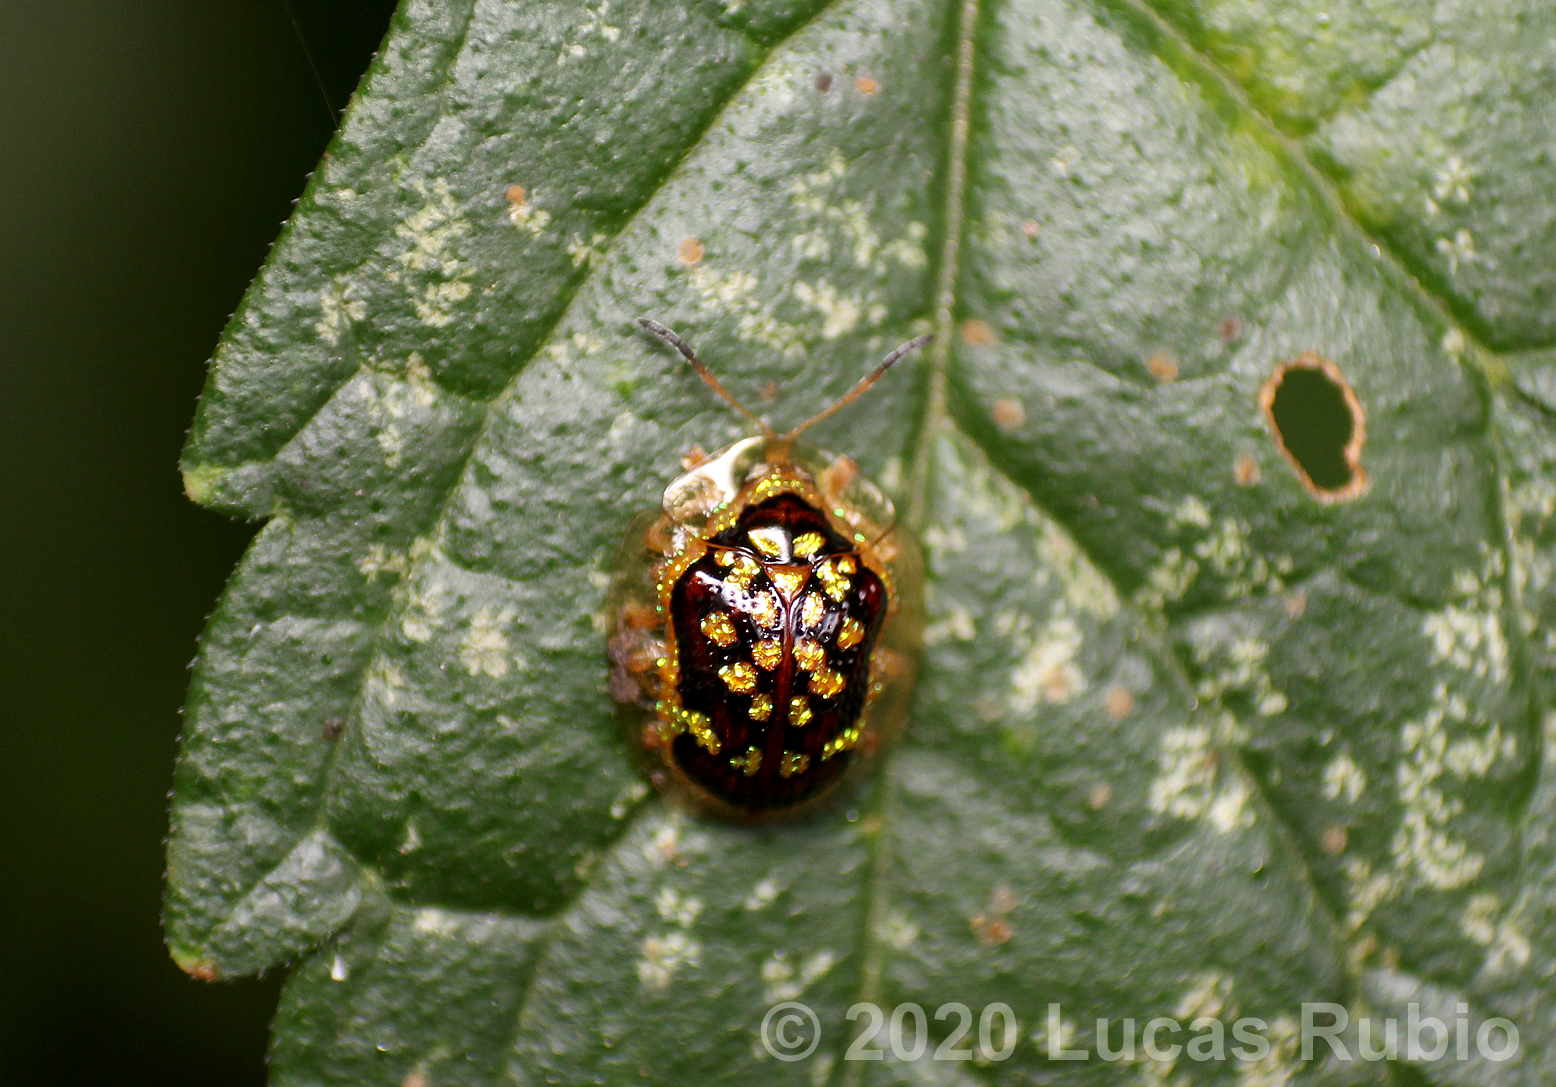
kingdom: Animalia
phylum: Arthropoda
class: Insecta
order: Coleoptera
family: Chrysomelidae
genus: Microctenochira
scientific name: Microctenochira brasiliensis
